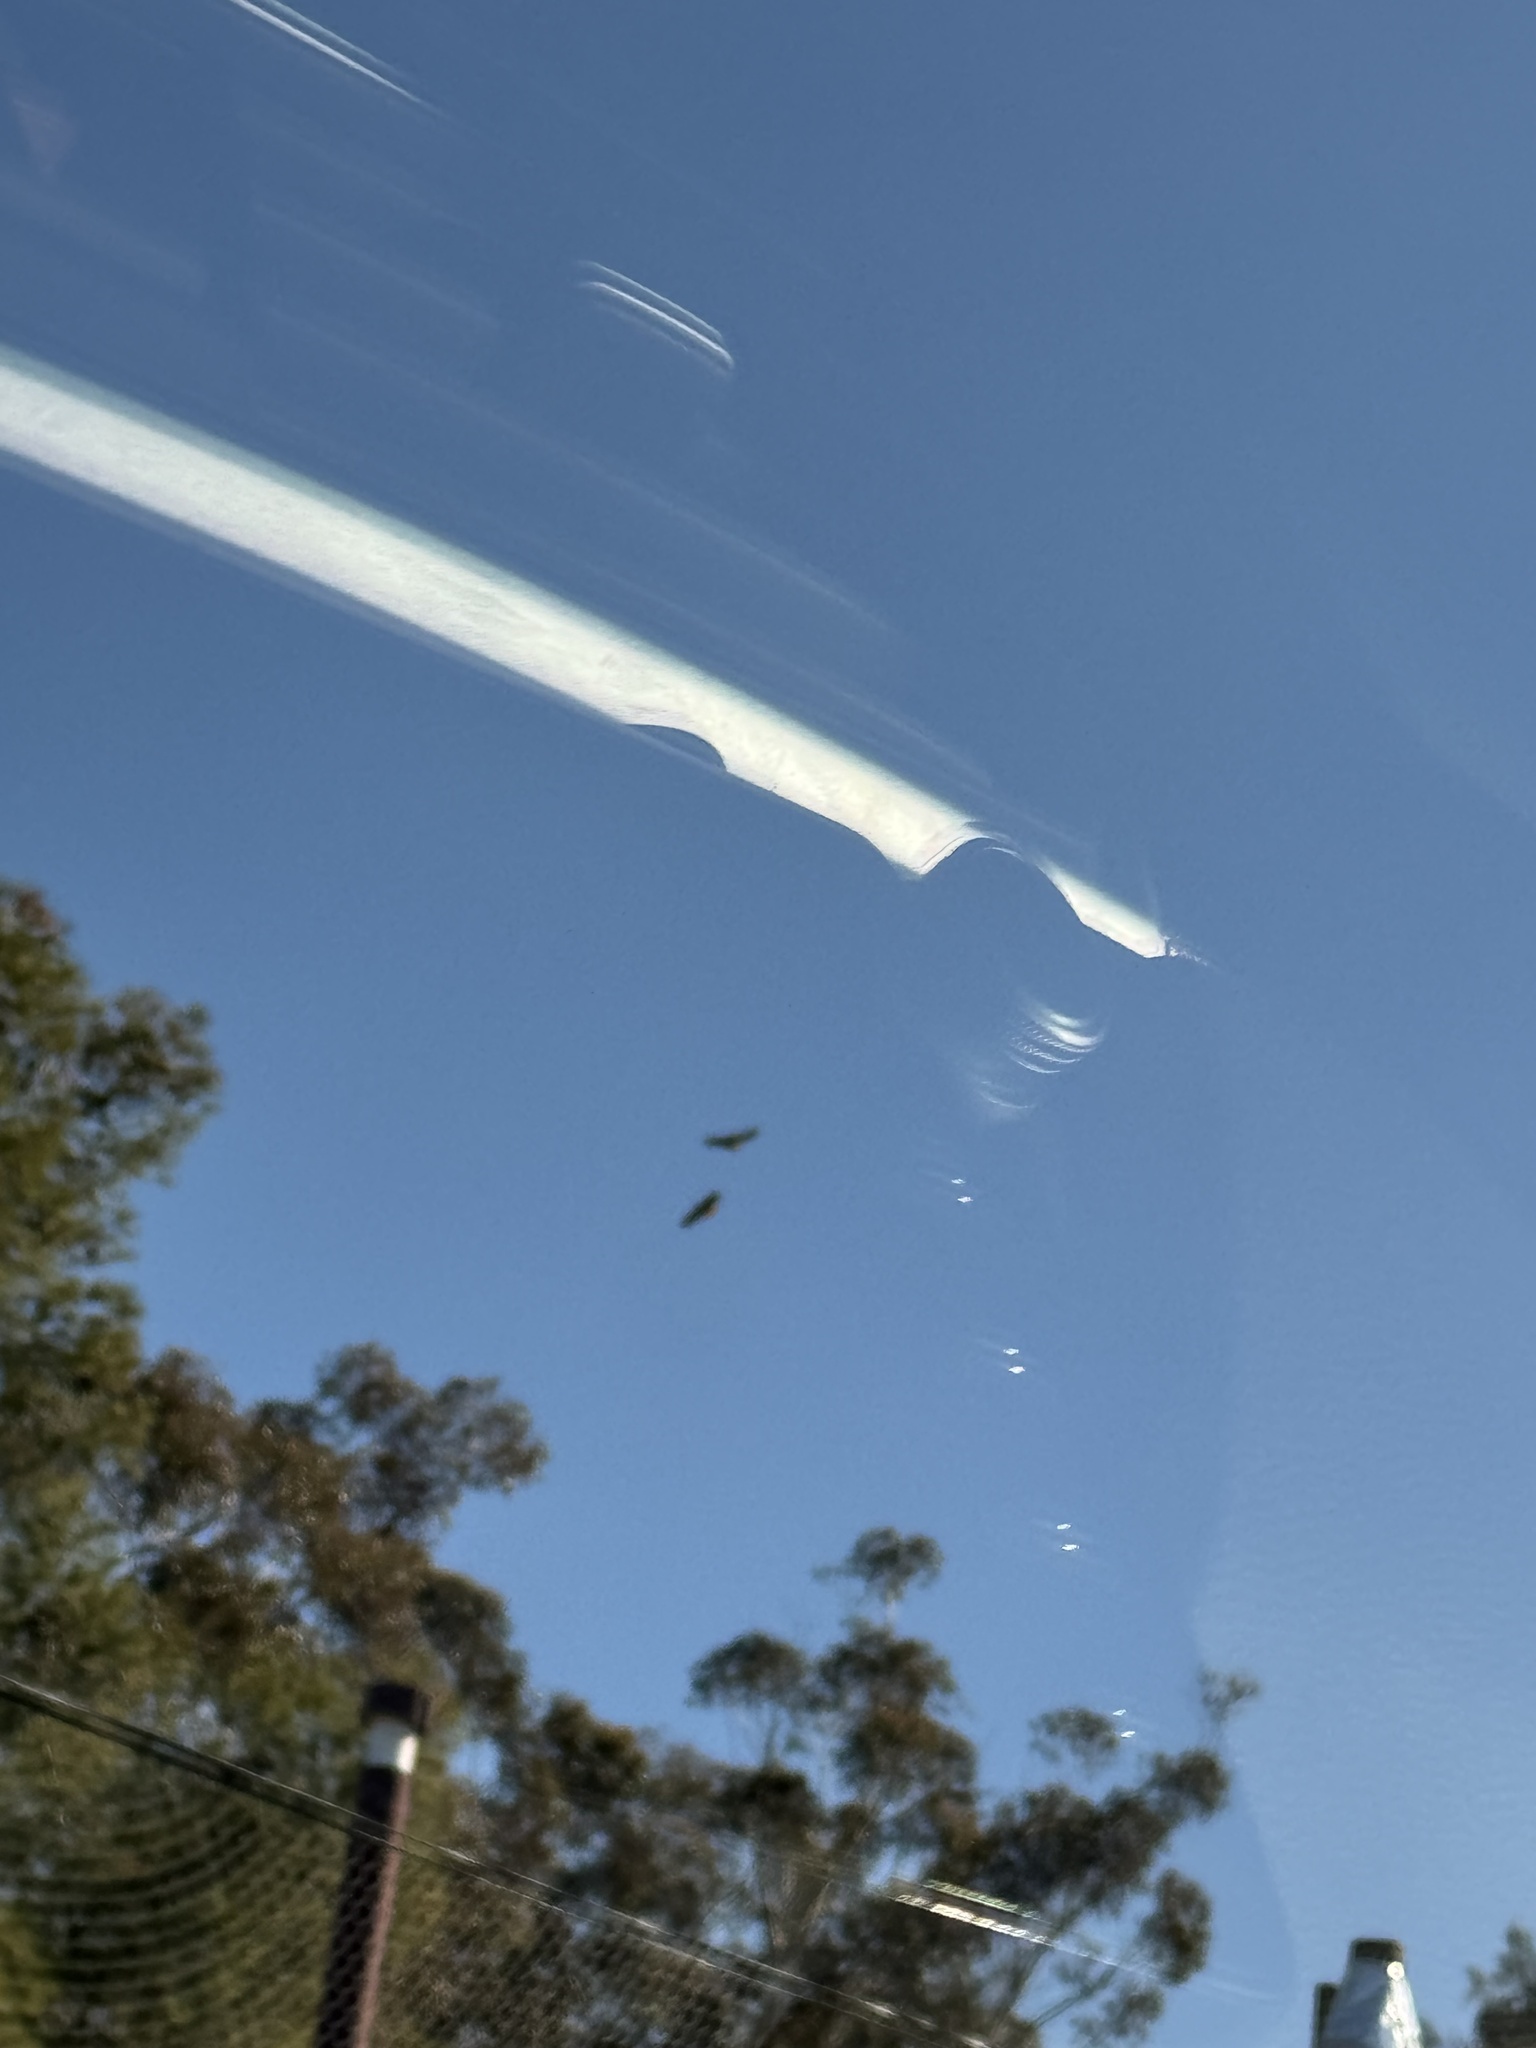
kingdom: Animalia
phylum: Chordata
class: Aves
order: Accipitriformes
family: Accipitridae
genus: Buteo
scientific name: Buteo jamaicensis
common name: Red-tailed hawk
